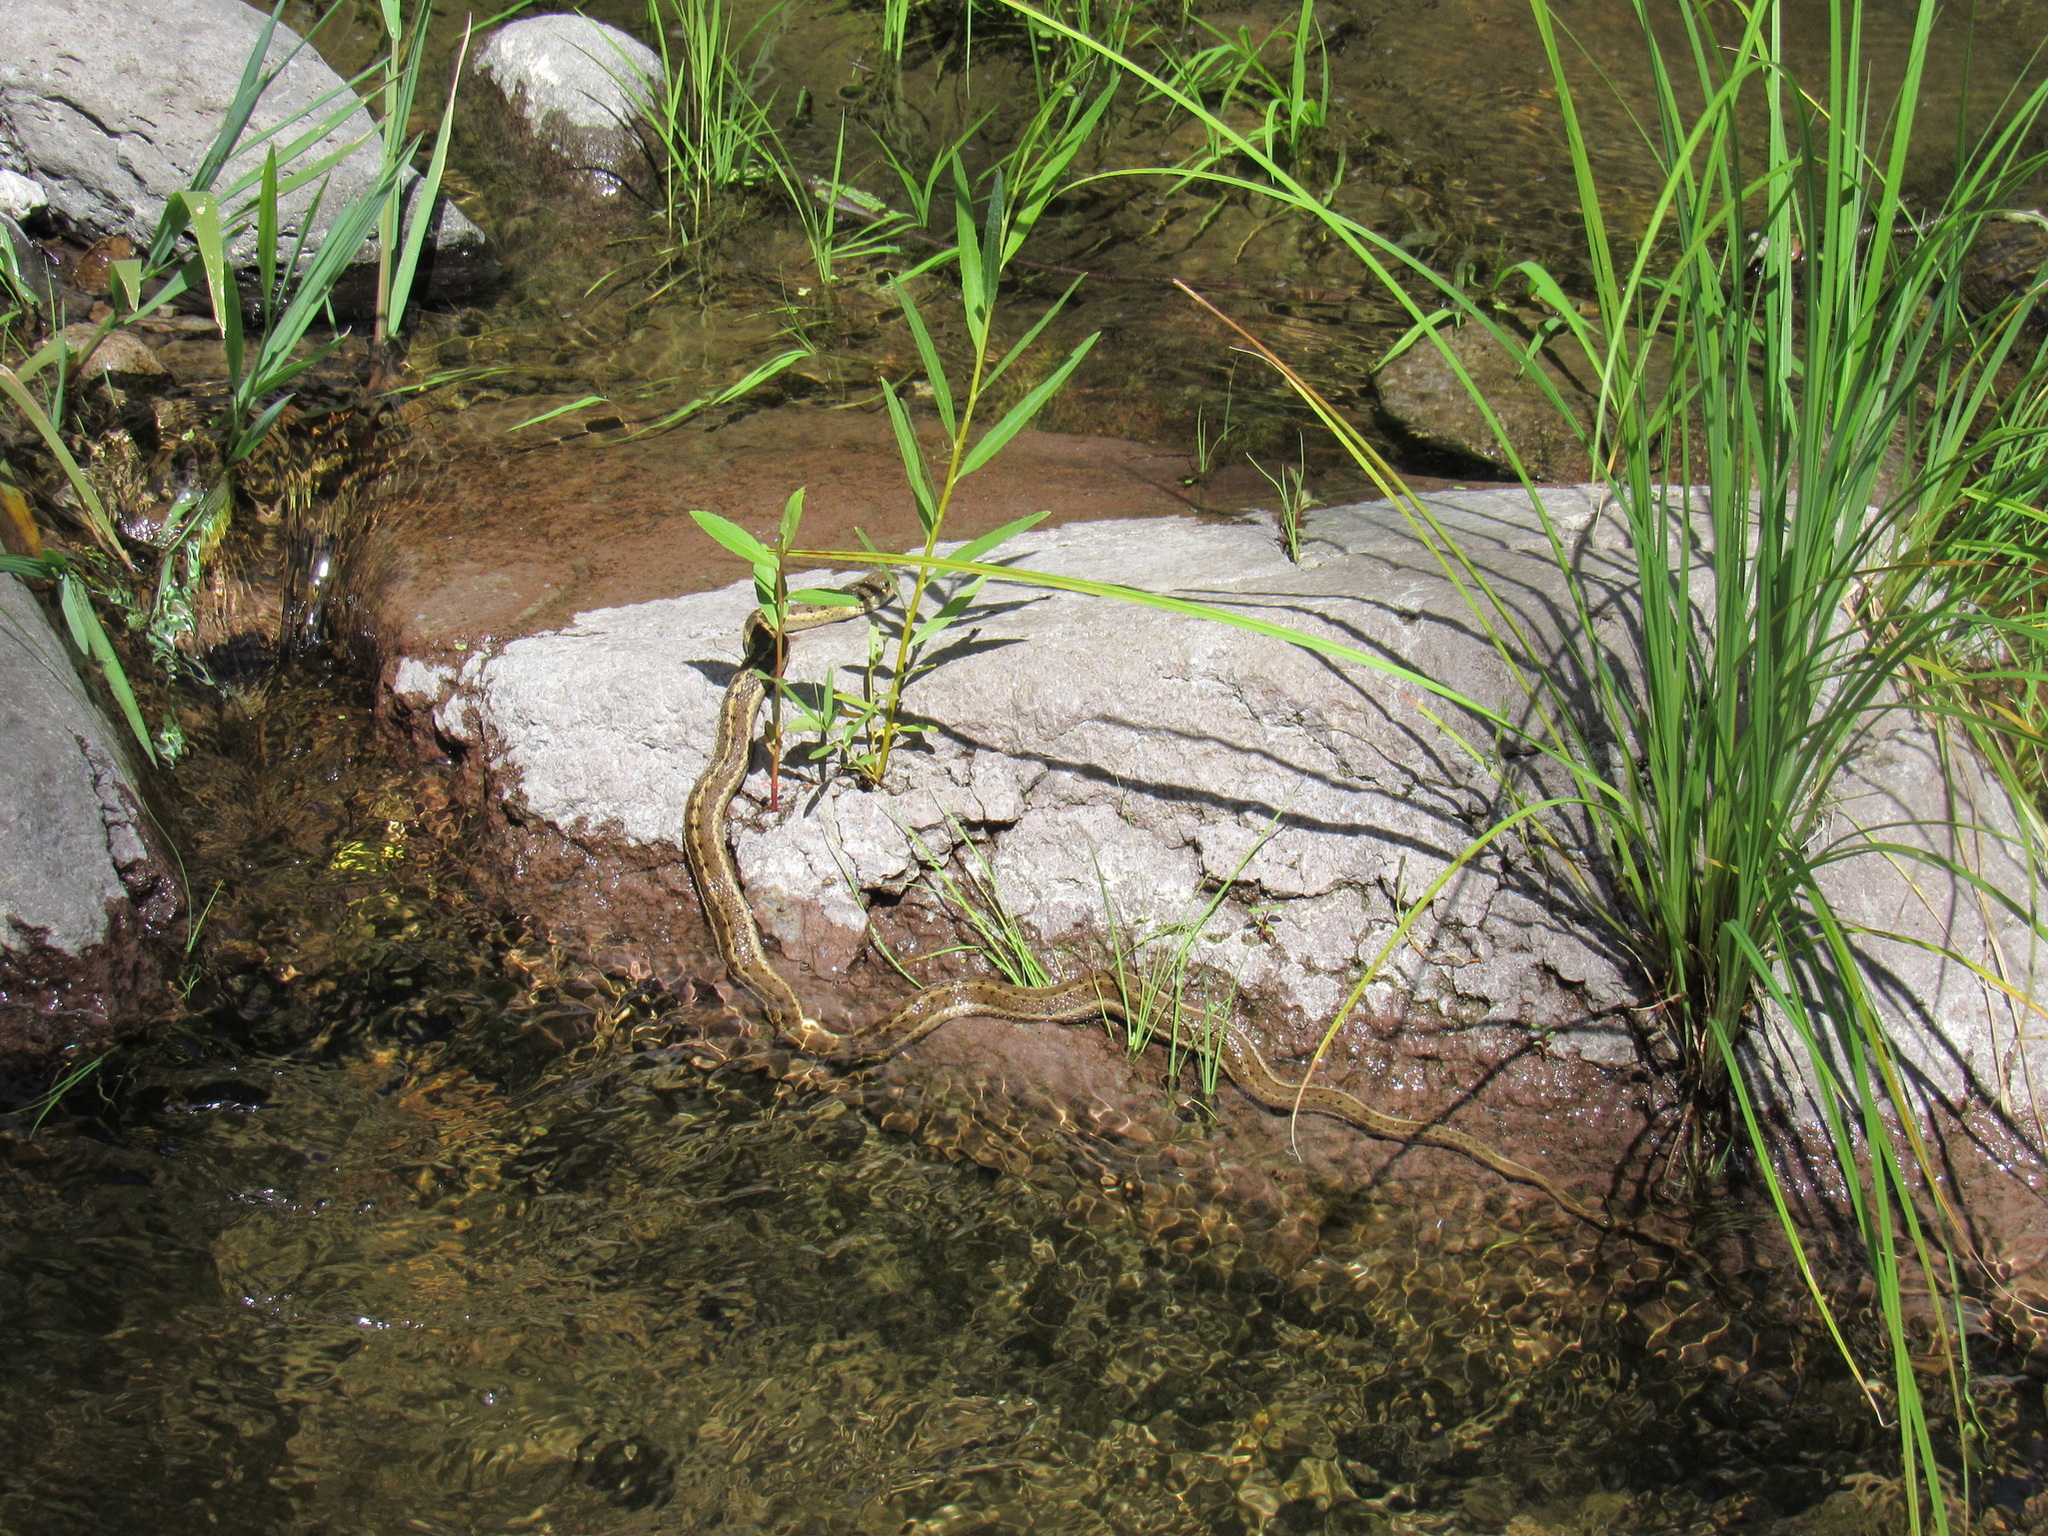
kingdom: Animalia
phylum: Chordata
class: Squamata
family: Colubridae
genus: Thamnophis
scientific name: Thamnophis elegans
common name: Western terrestrial garter snake
